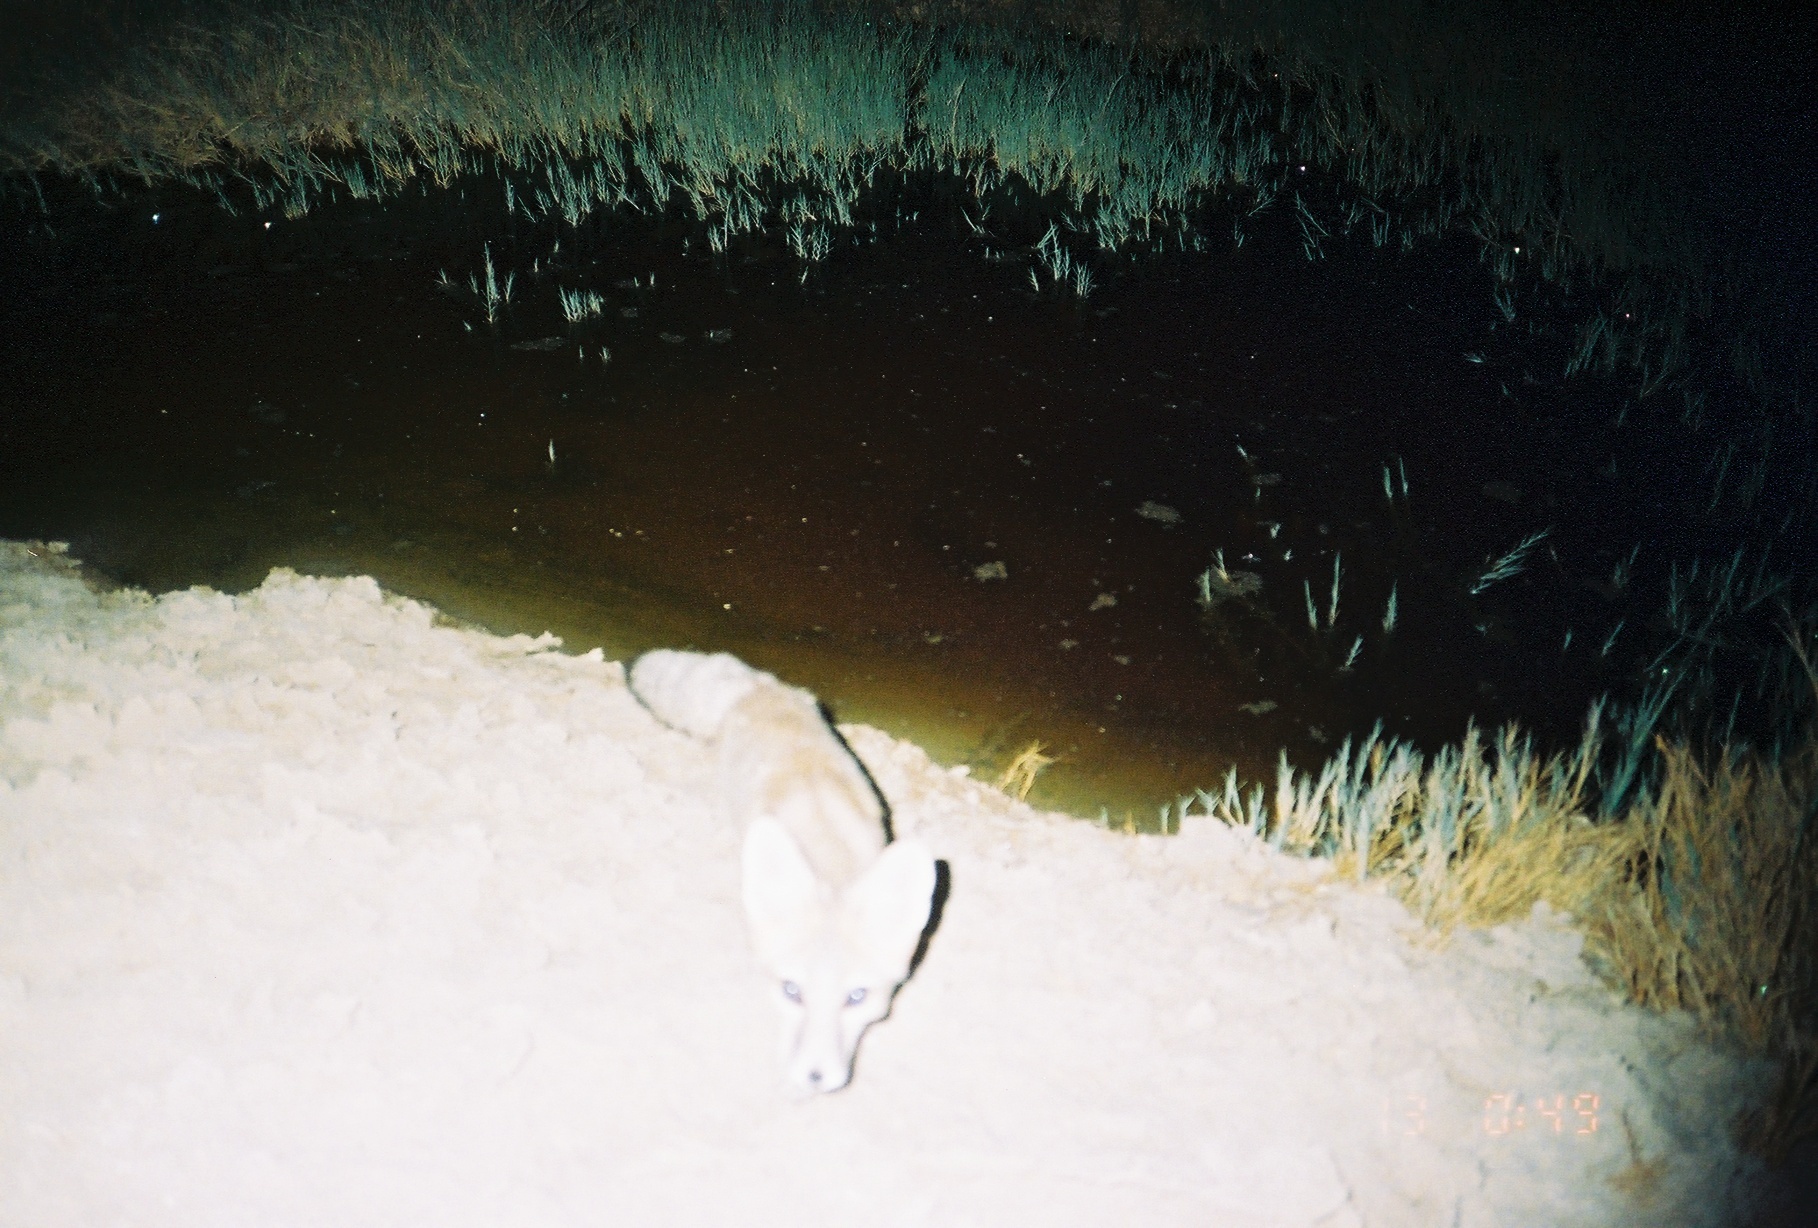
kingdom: Animalia
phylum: Chordata
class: Mammalia
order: Carnivora
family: Canidae
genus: Vulpes
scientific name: Vulpes macrotis
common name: Kit fox
